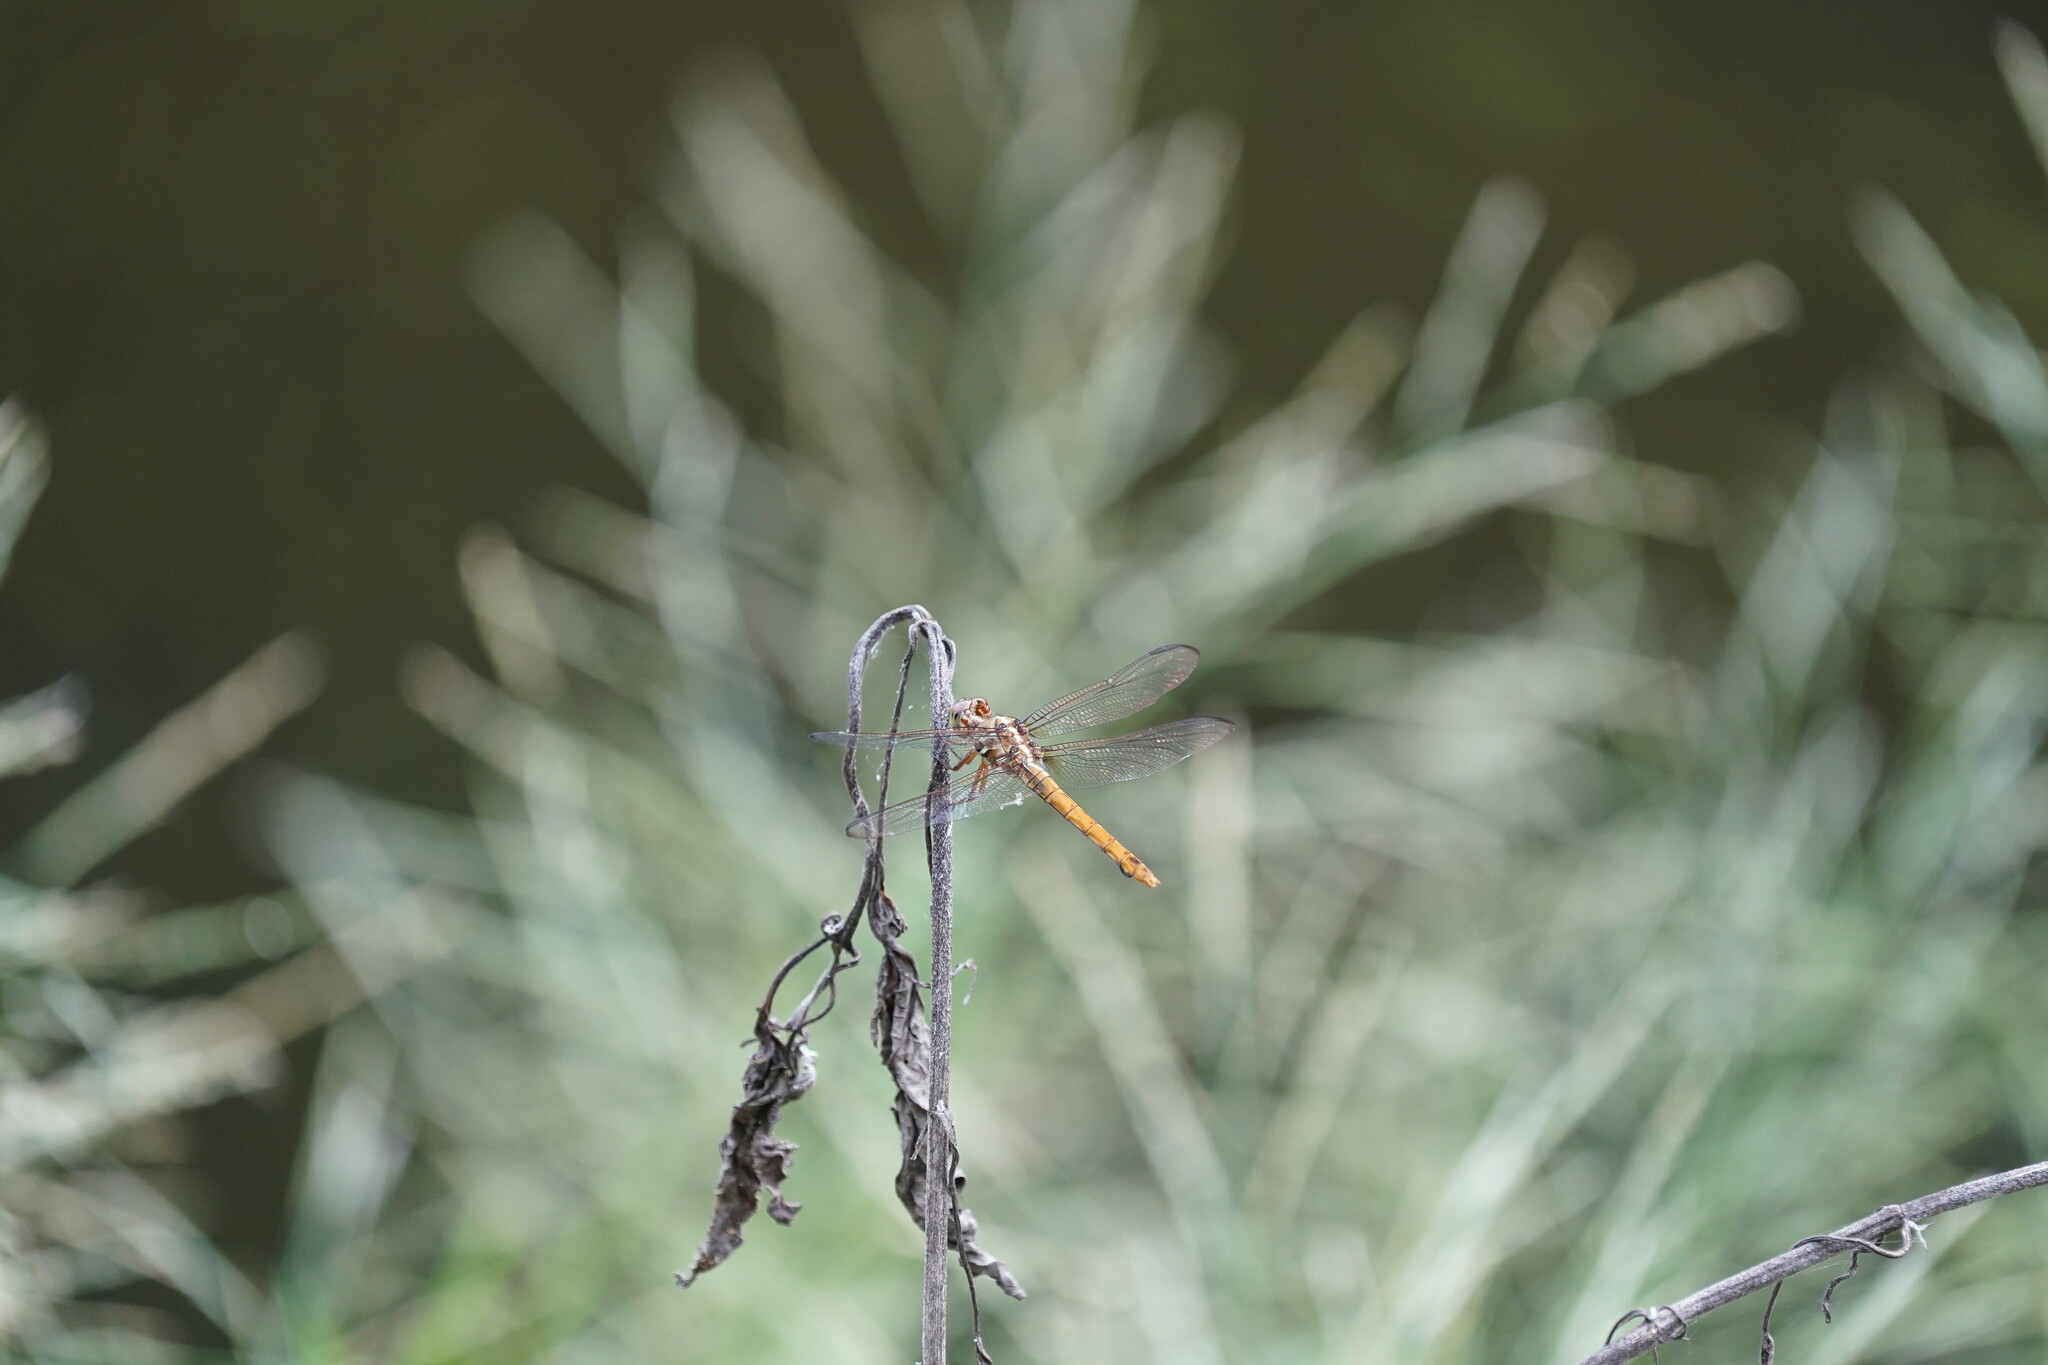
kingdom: Animalia
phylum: Arthropoda
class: Insecta
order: Odonata
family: Libellulidae
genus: Orthemis
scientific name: Orthemis ferruginea
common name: Roseate skimmer
